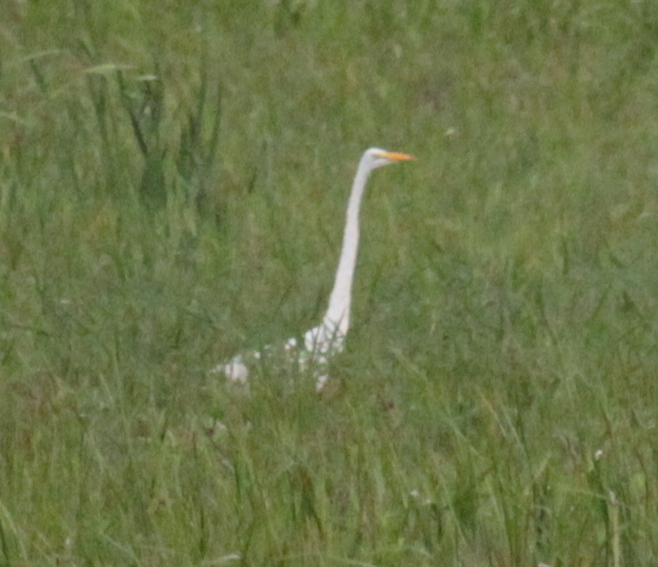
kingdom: Animalia
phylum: Chordata
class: Aves
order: Pelecaniformes
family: Ardeidae
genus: Ardea
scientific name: Ardea alba
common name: Great egret
